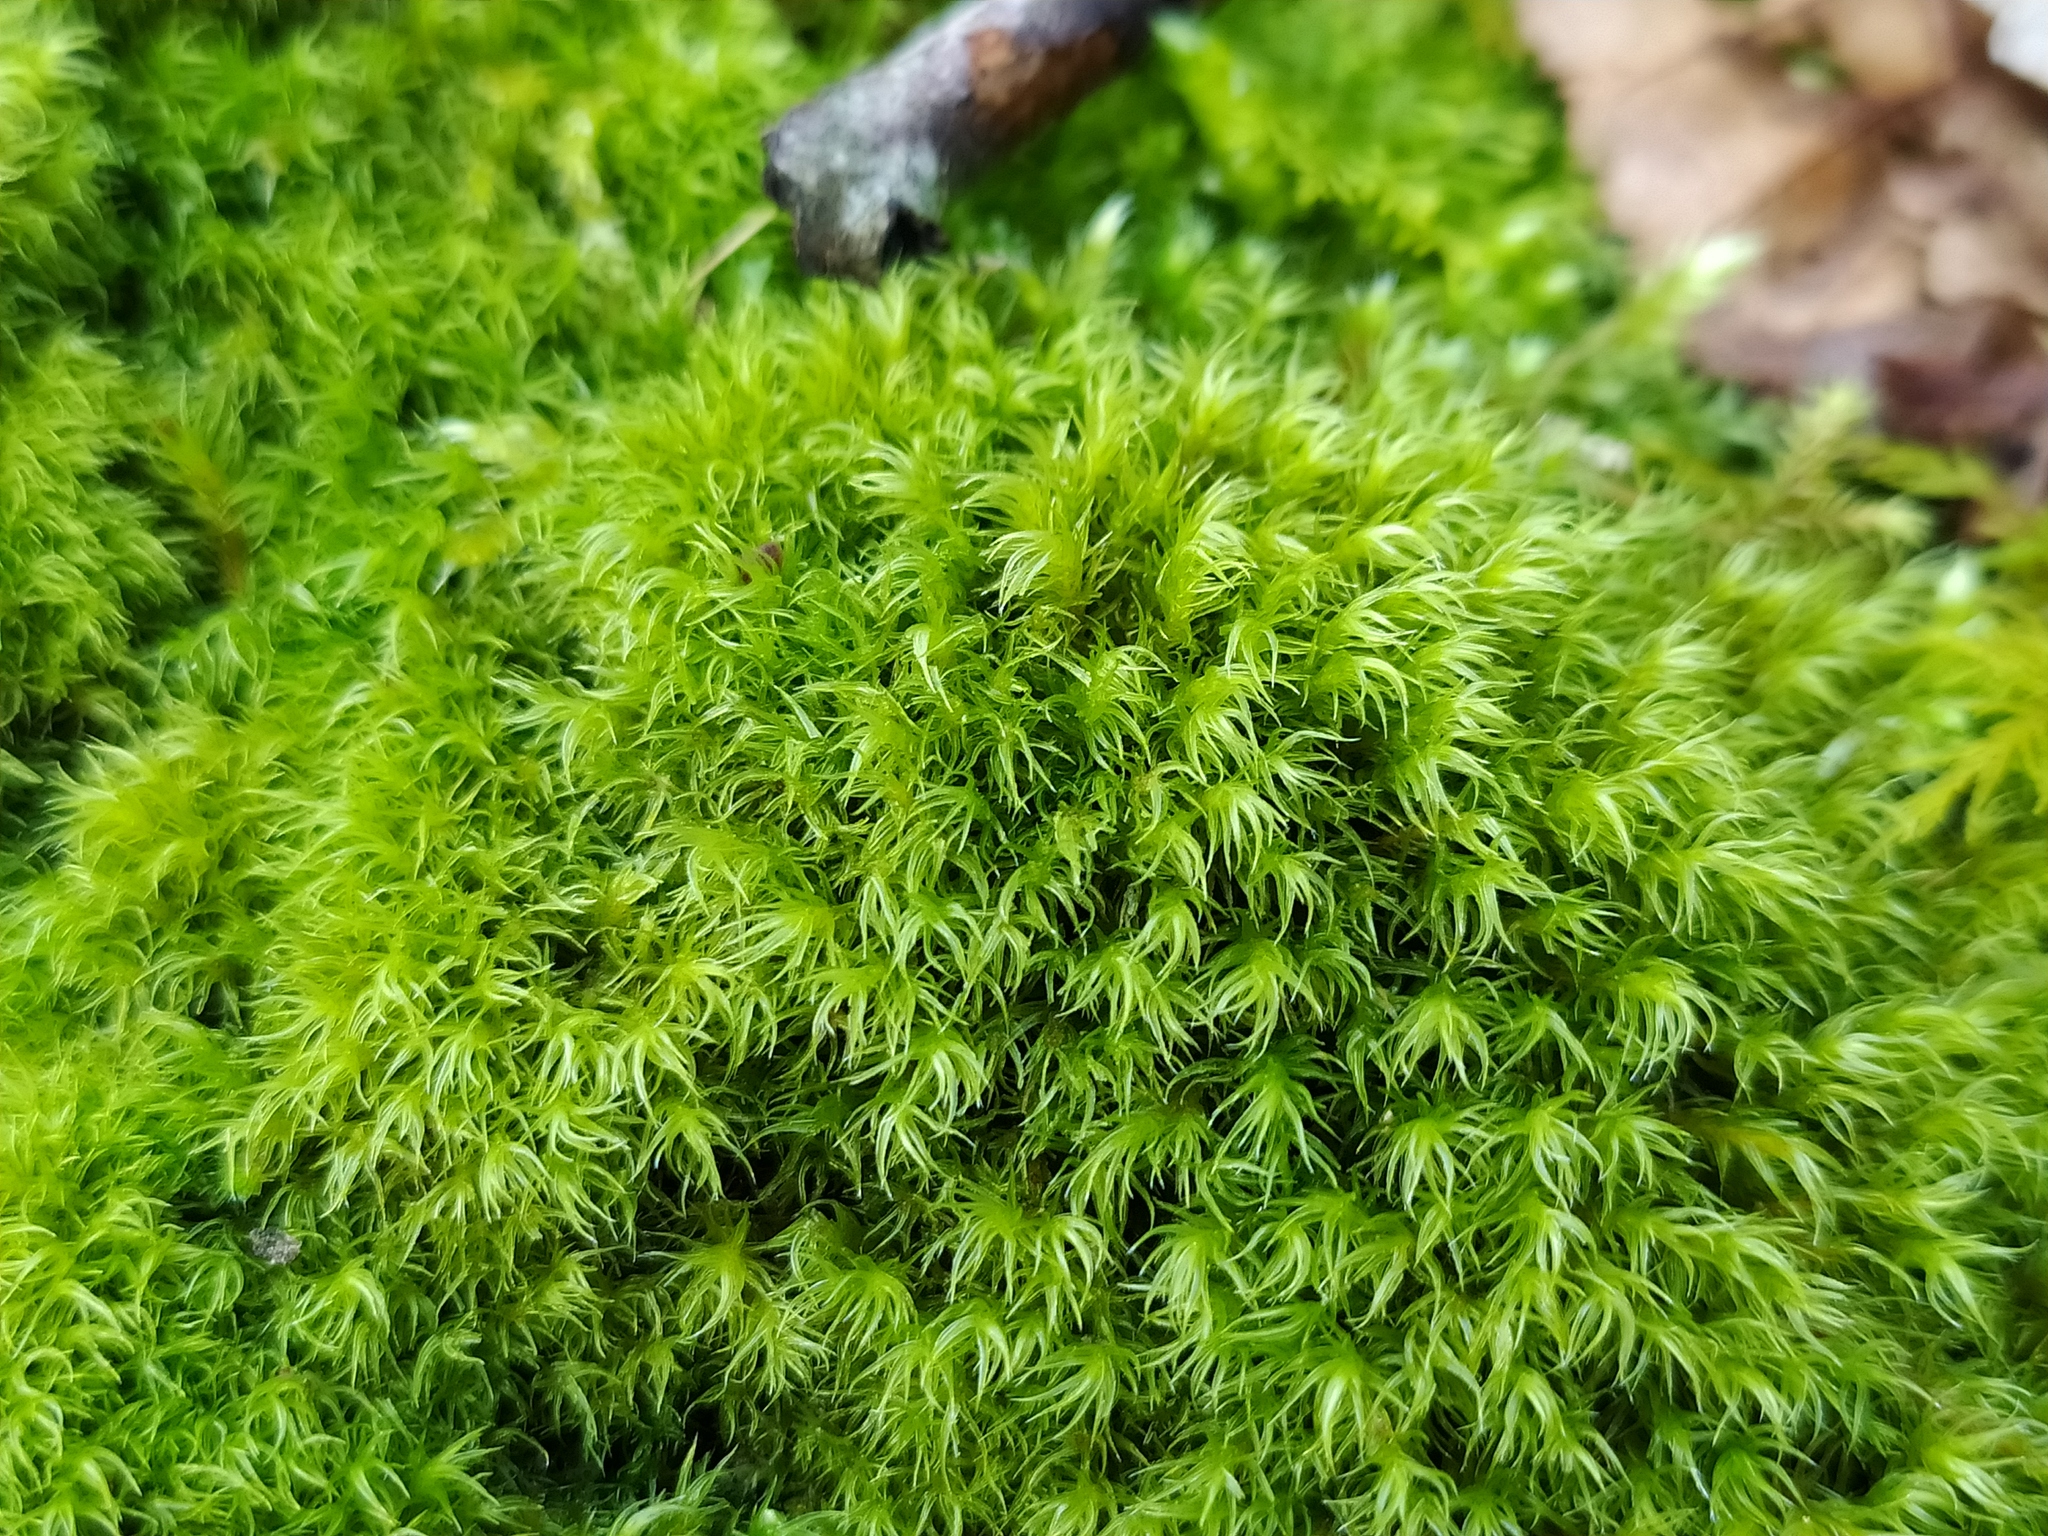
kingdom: Plantae
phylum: Bryophyta
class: Bryopsida
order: Grimmiales
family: Grimmiaceae
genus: Grimmia
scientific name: Grimmia hartmanii
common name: Hartman's grimmia
